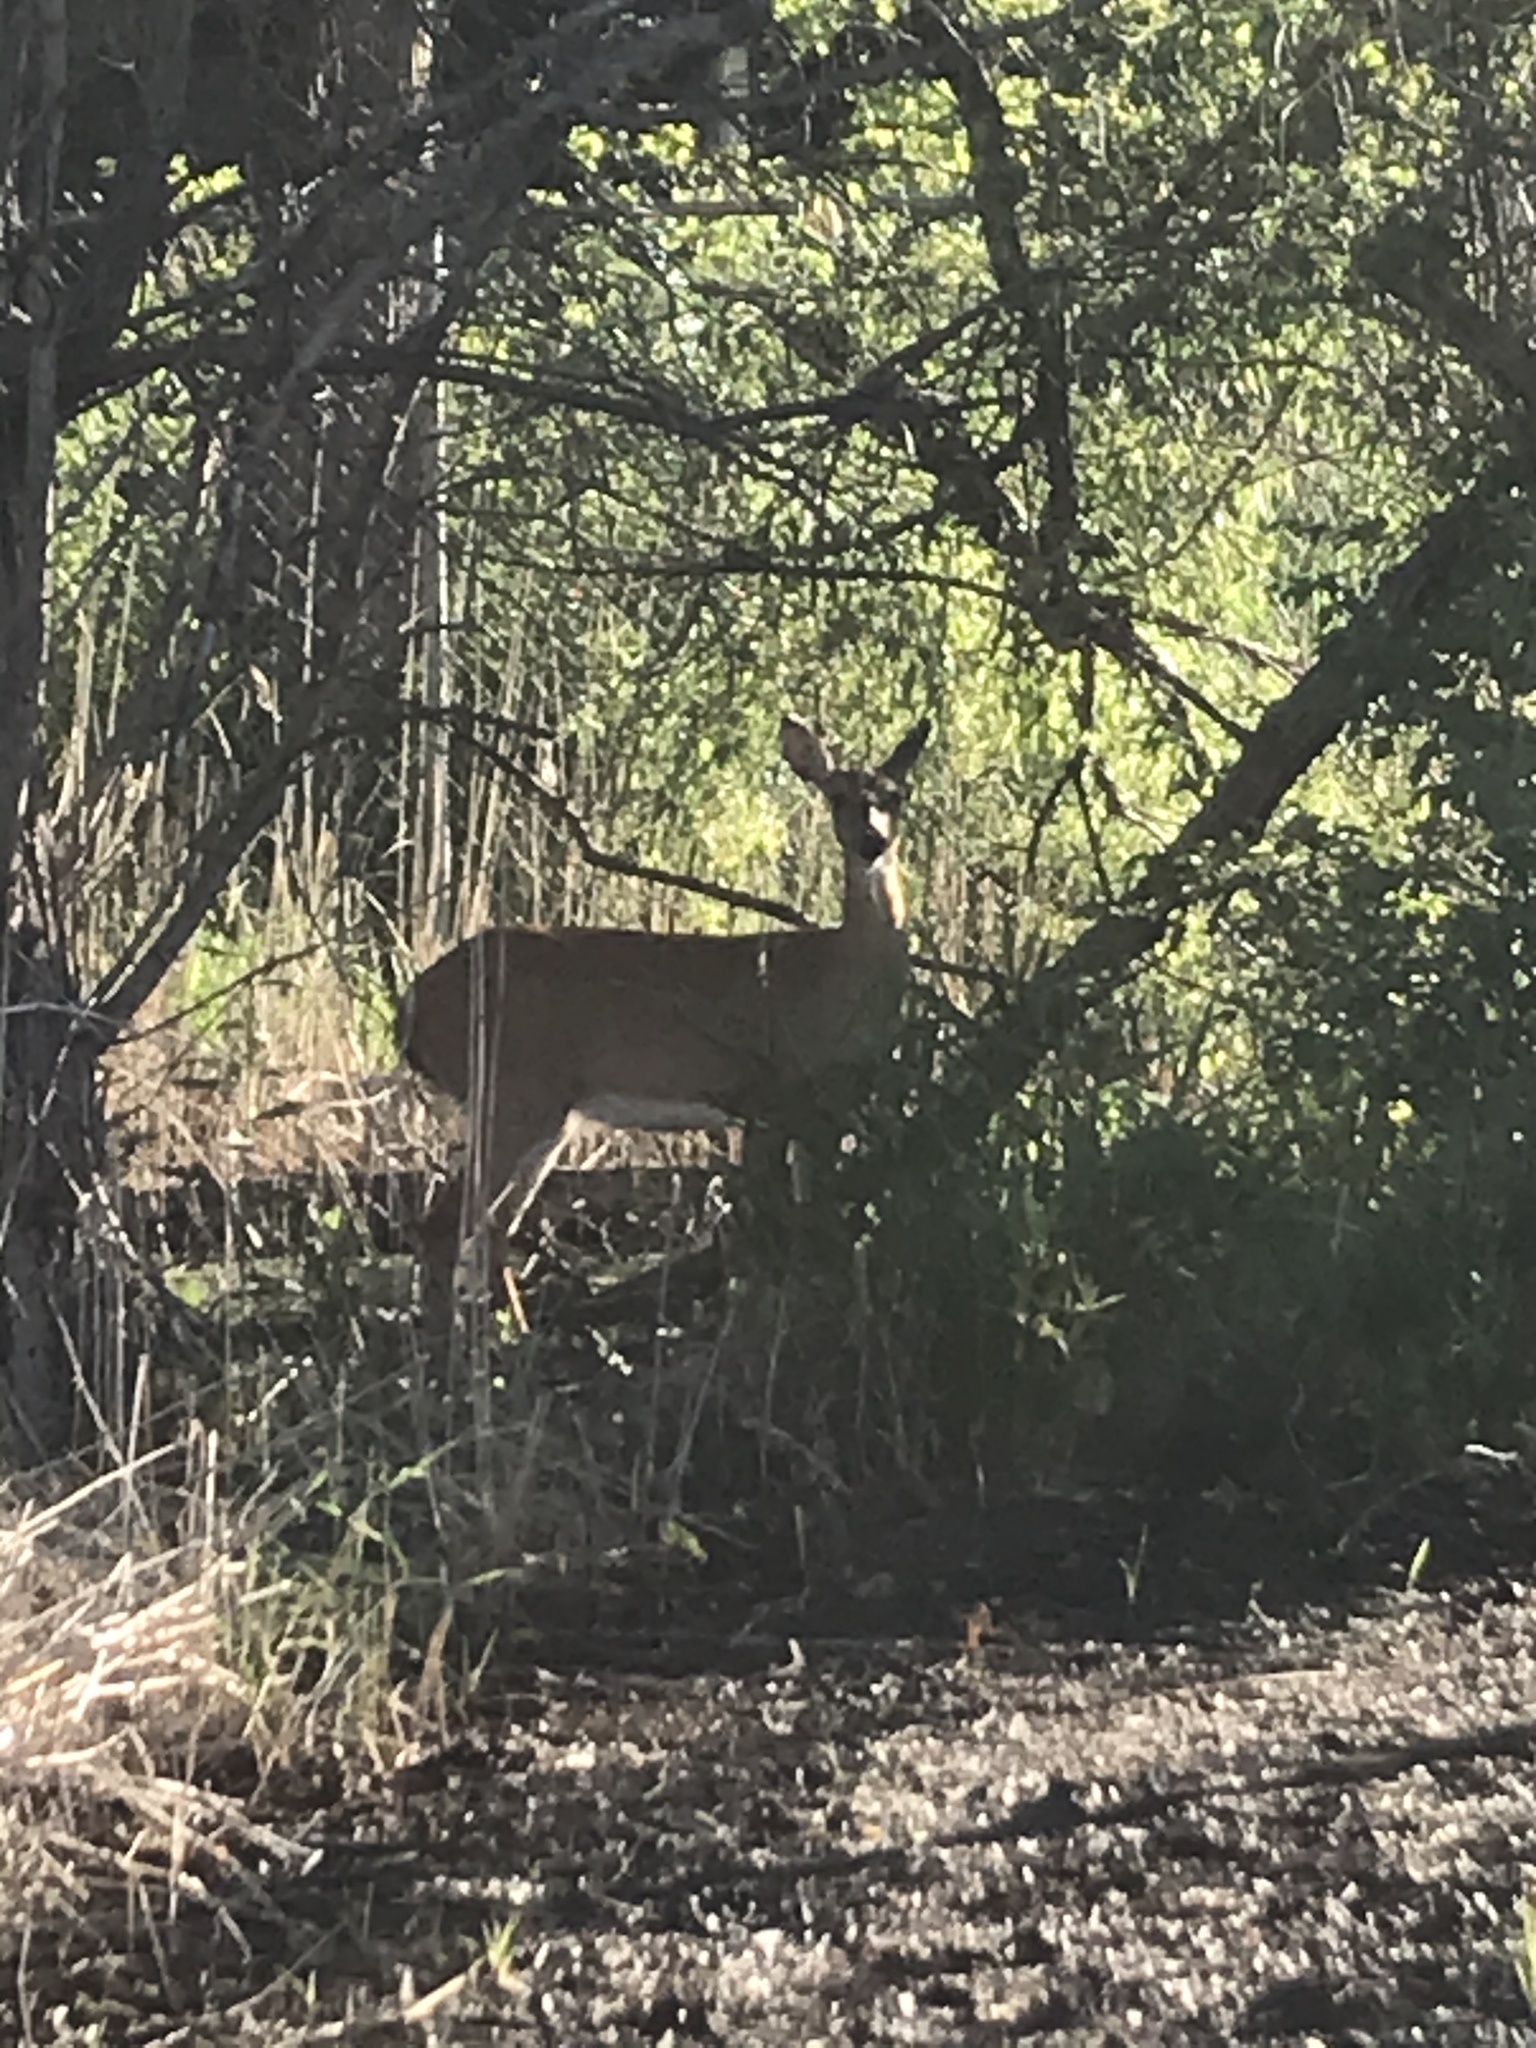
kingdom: Animalia
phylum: Chordata
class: Mammalia
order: Artiodactyla
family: Cervidae
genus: Odocoileus
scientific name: Odocoileus virginianus
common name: White-tailed deer
